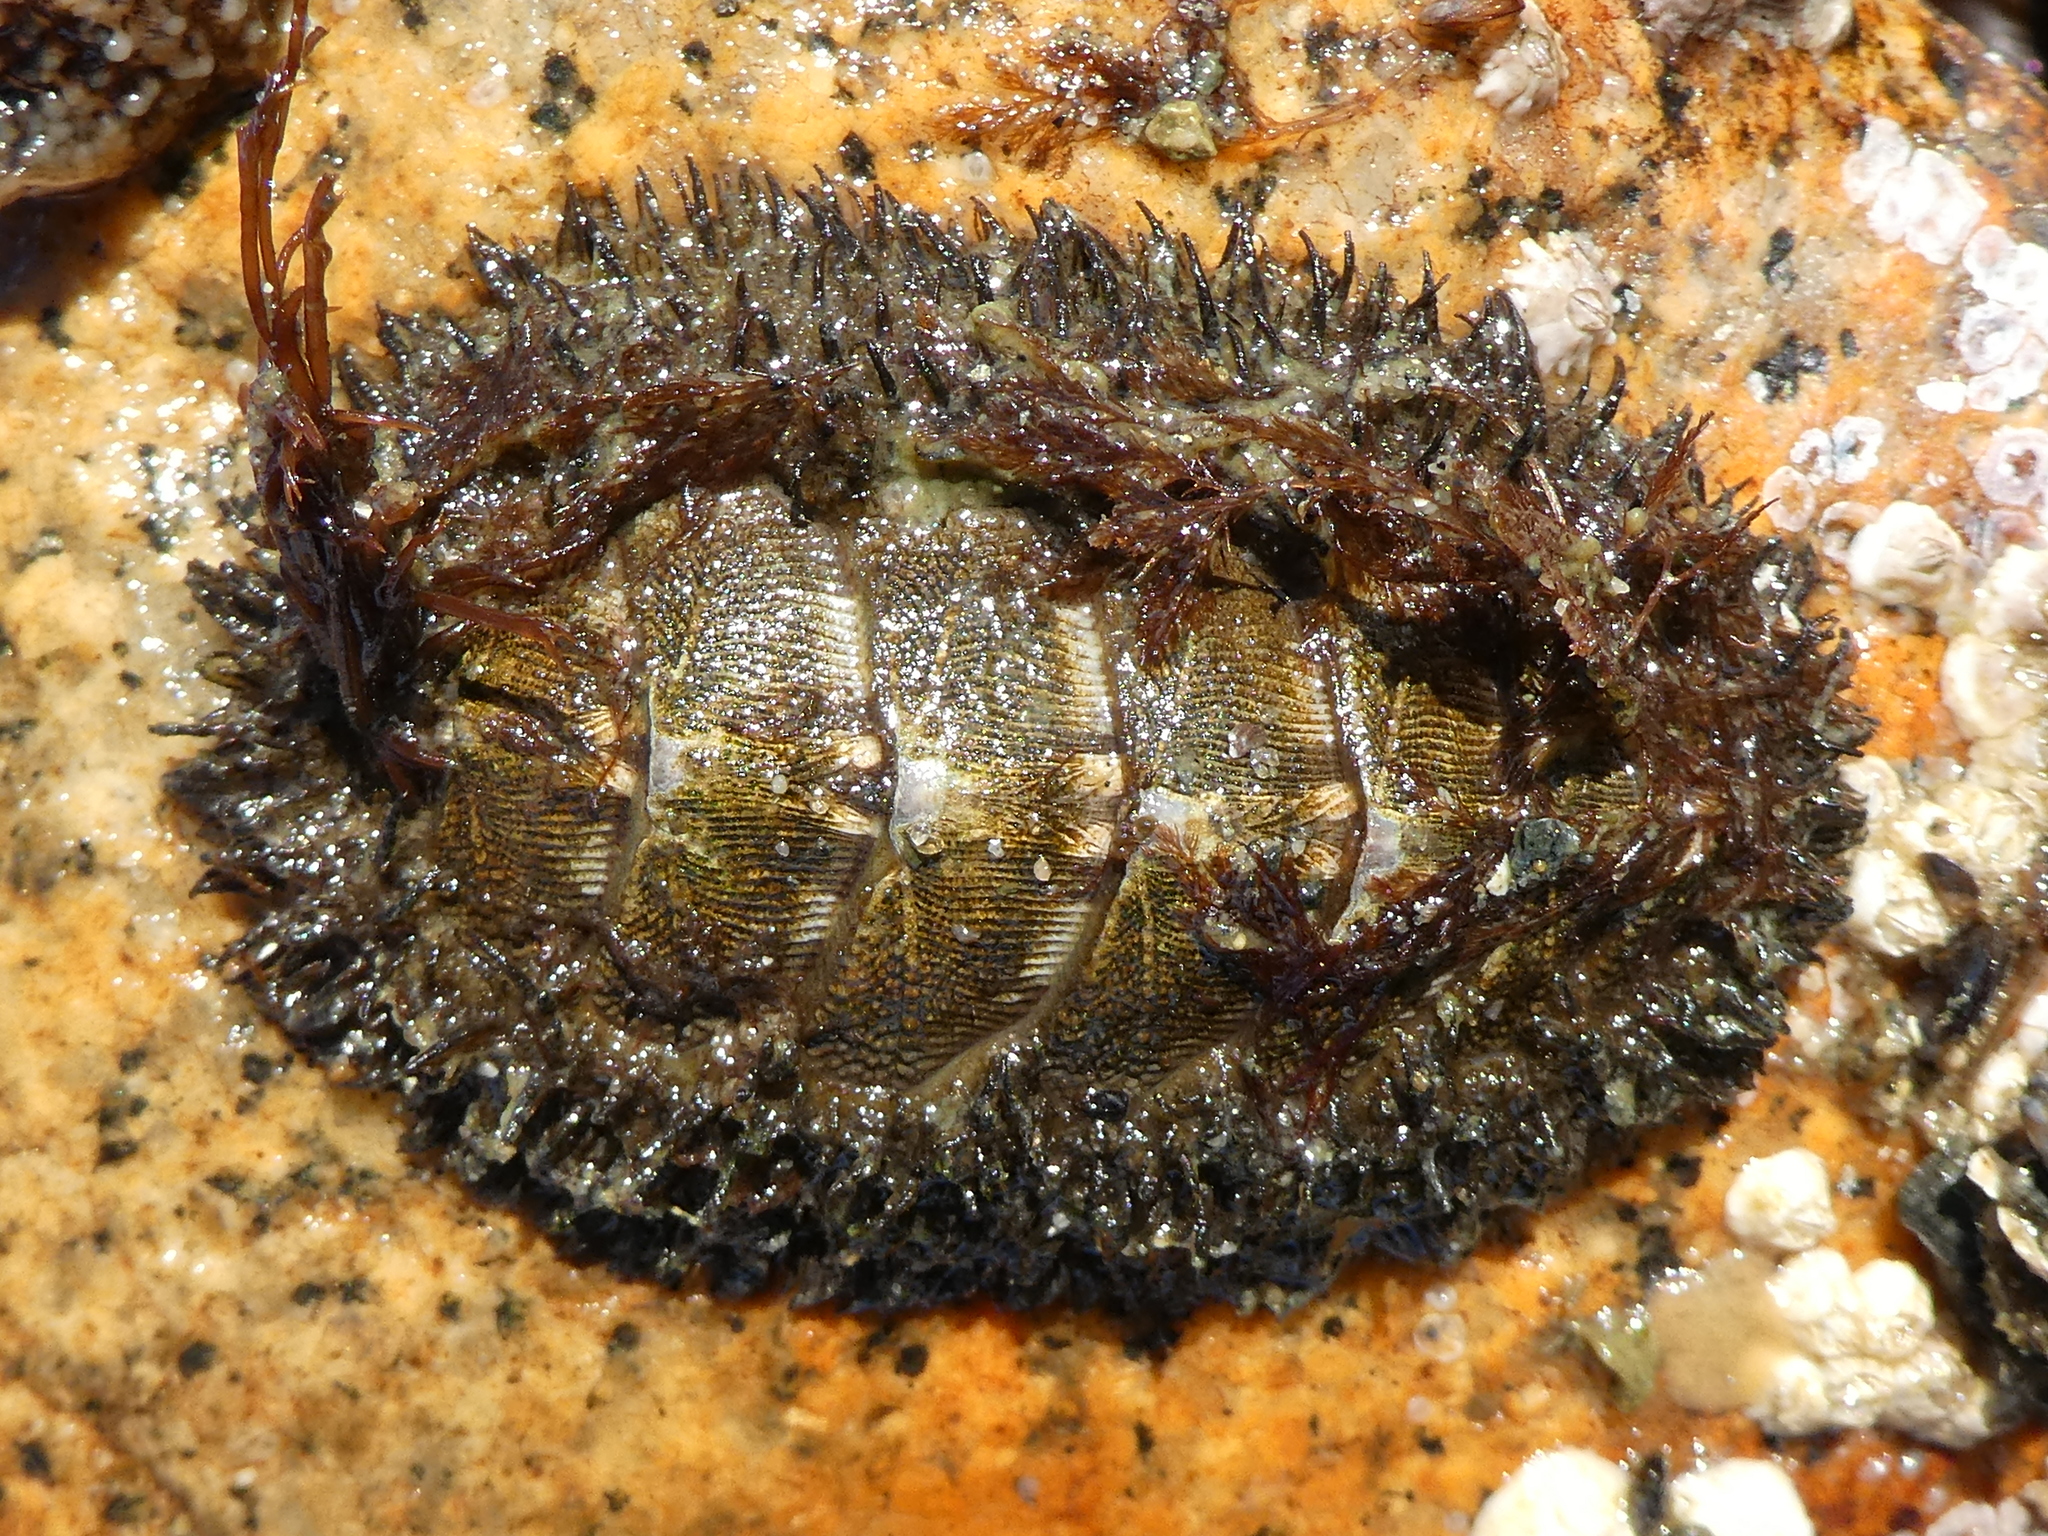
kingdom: Animalia
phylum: Mollusca
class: Polyplacophora
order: Chitonida
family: Mopaliidae
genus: Mopalia
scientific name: Mopalia muscosa
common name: Mossy chiton
